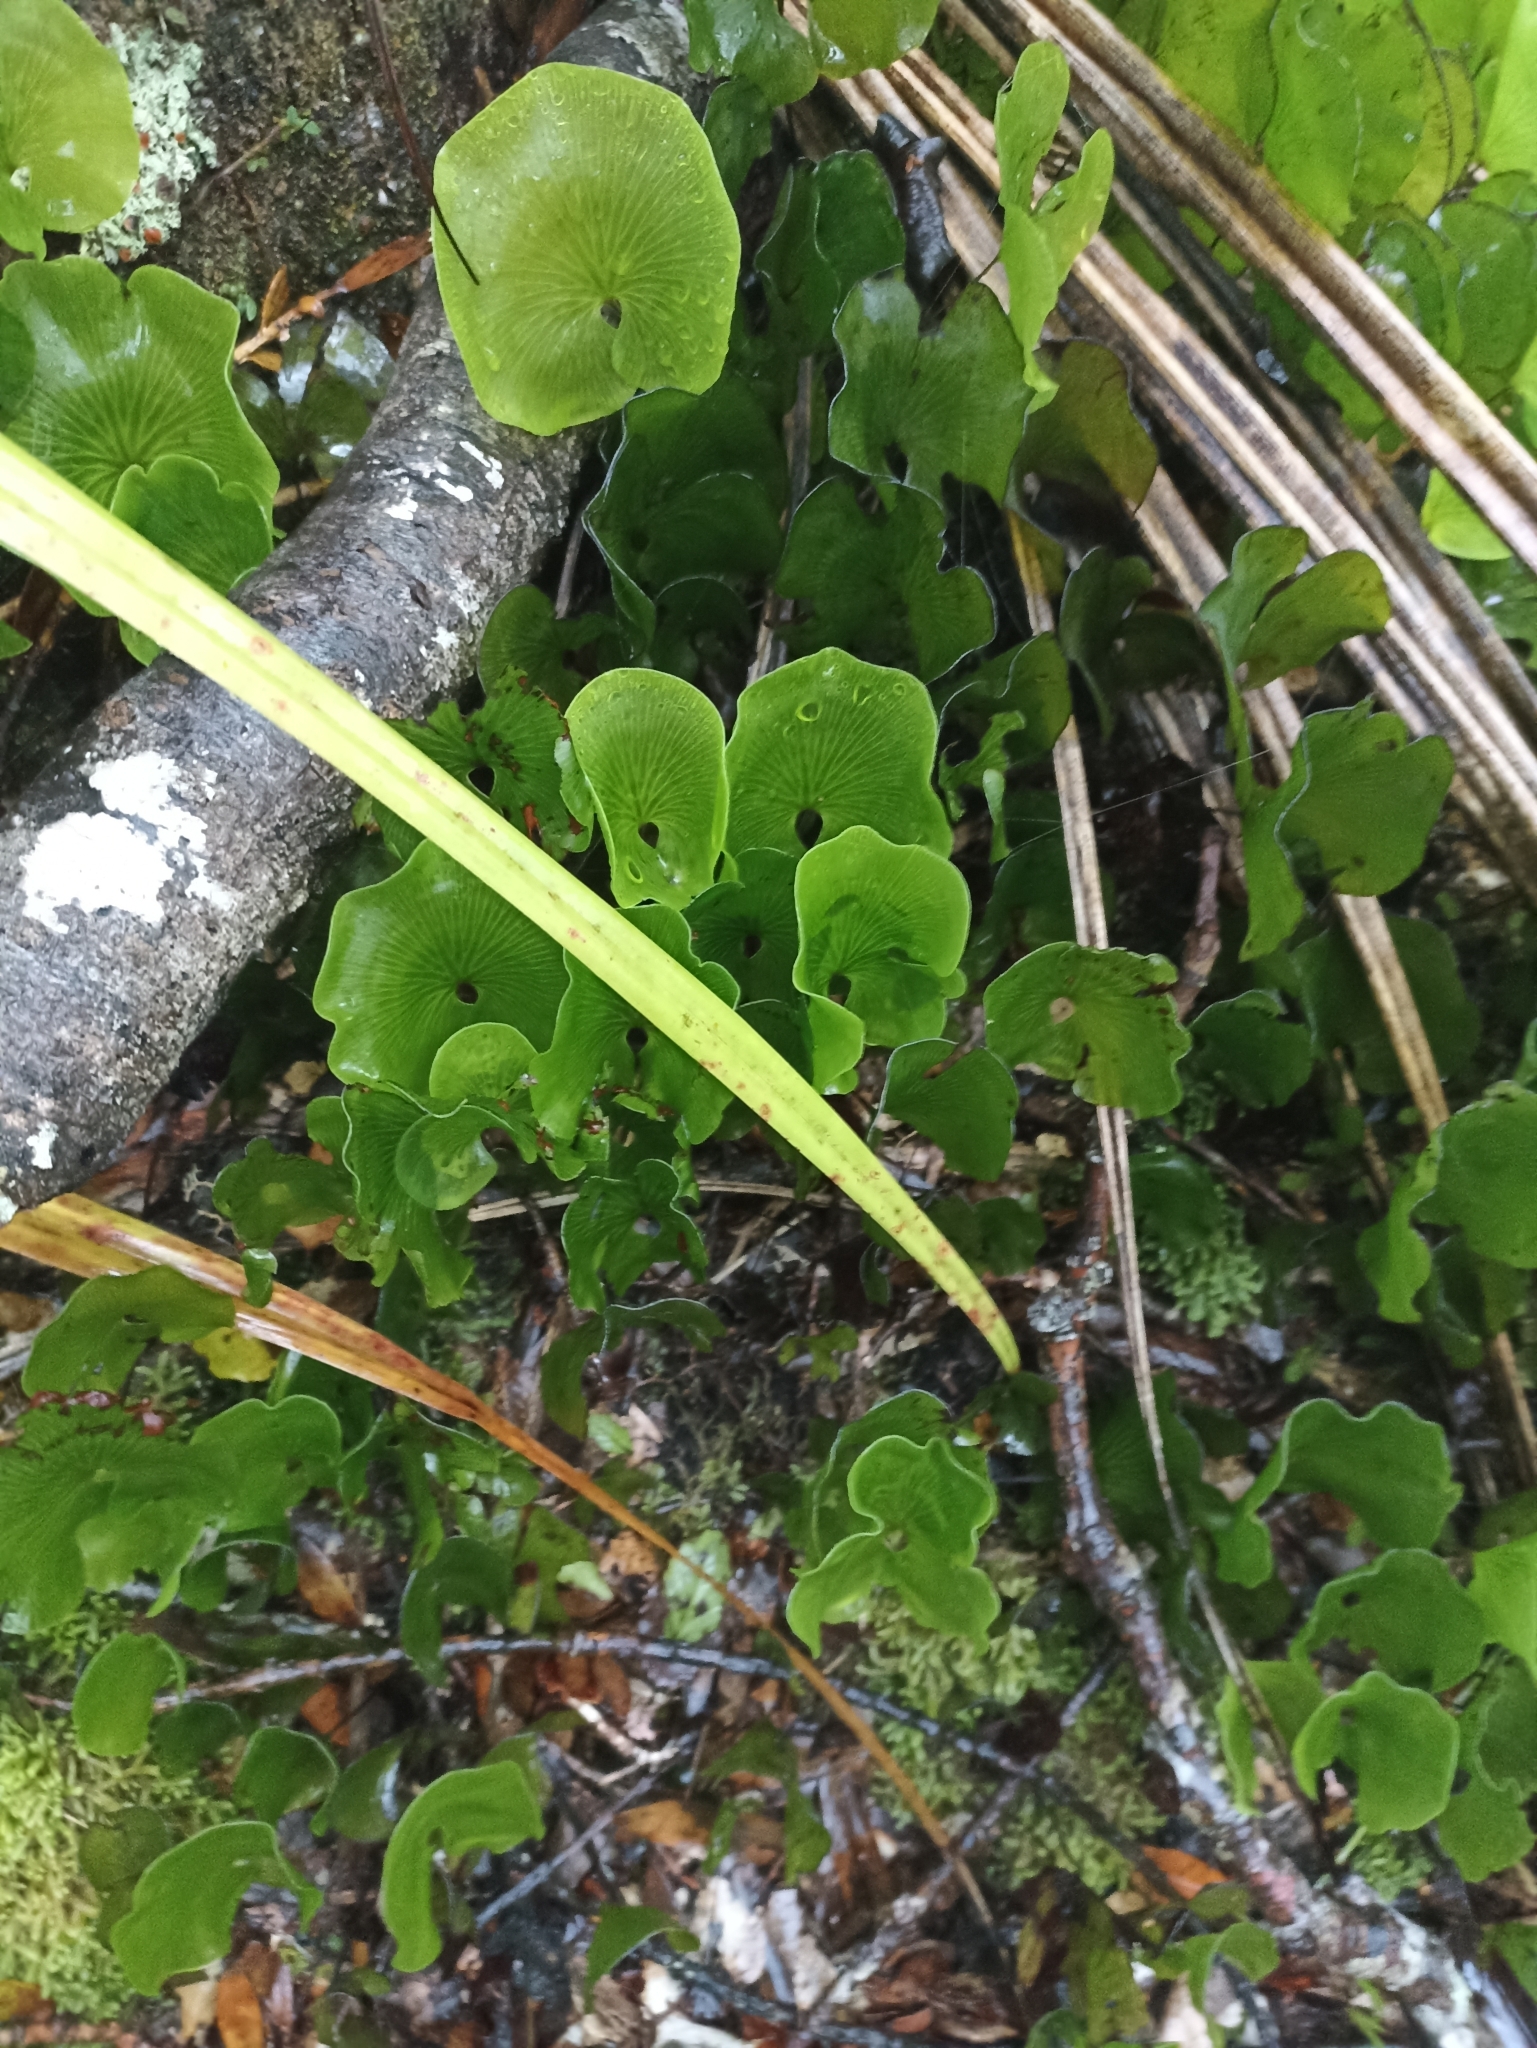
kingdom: Plantae
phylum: Tracheophyta
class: Polypodiopsida
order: Hymenophyllales
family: Hymenophyllaceae
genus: Hymenophyllum
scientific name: Hymenophyllum nephrophyllum
